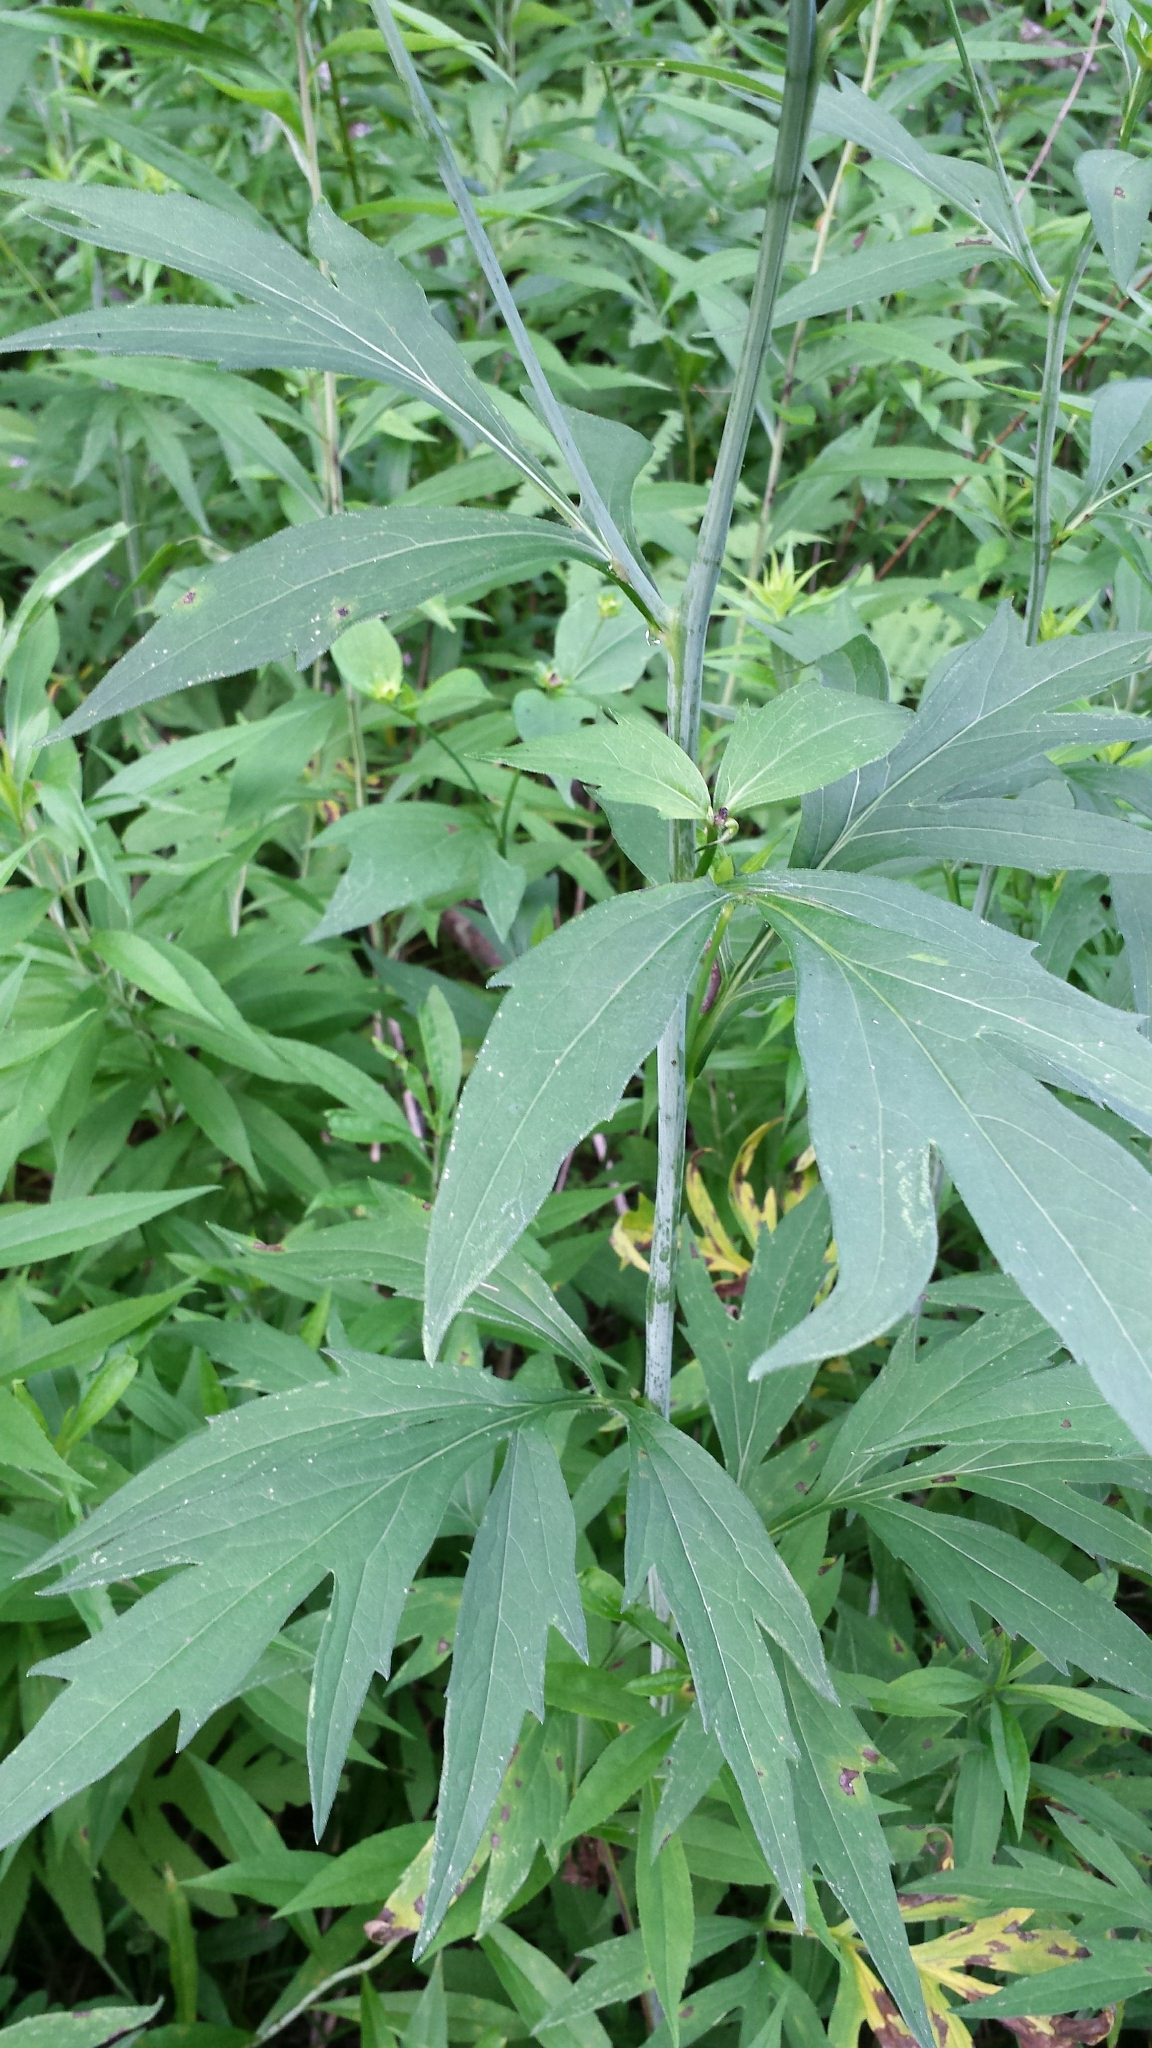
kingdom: Plantae
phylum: Tracheophyta
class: Magnoliopsida
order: Asterales
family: Asteraceae
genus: Rudbeckia
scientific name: Rudbeckia laciniata
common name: Coneflower
